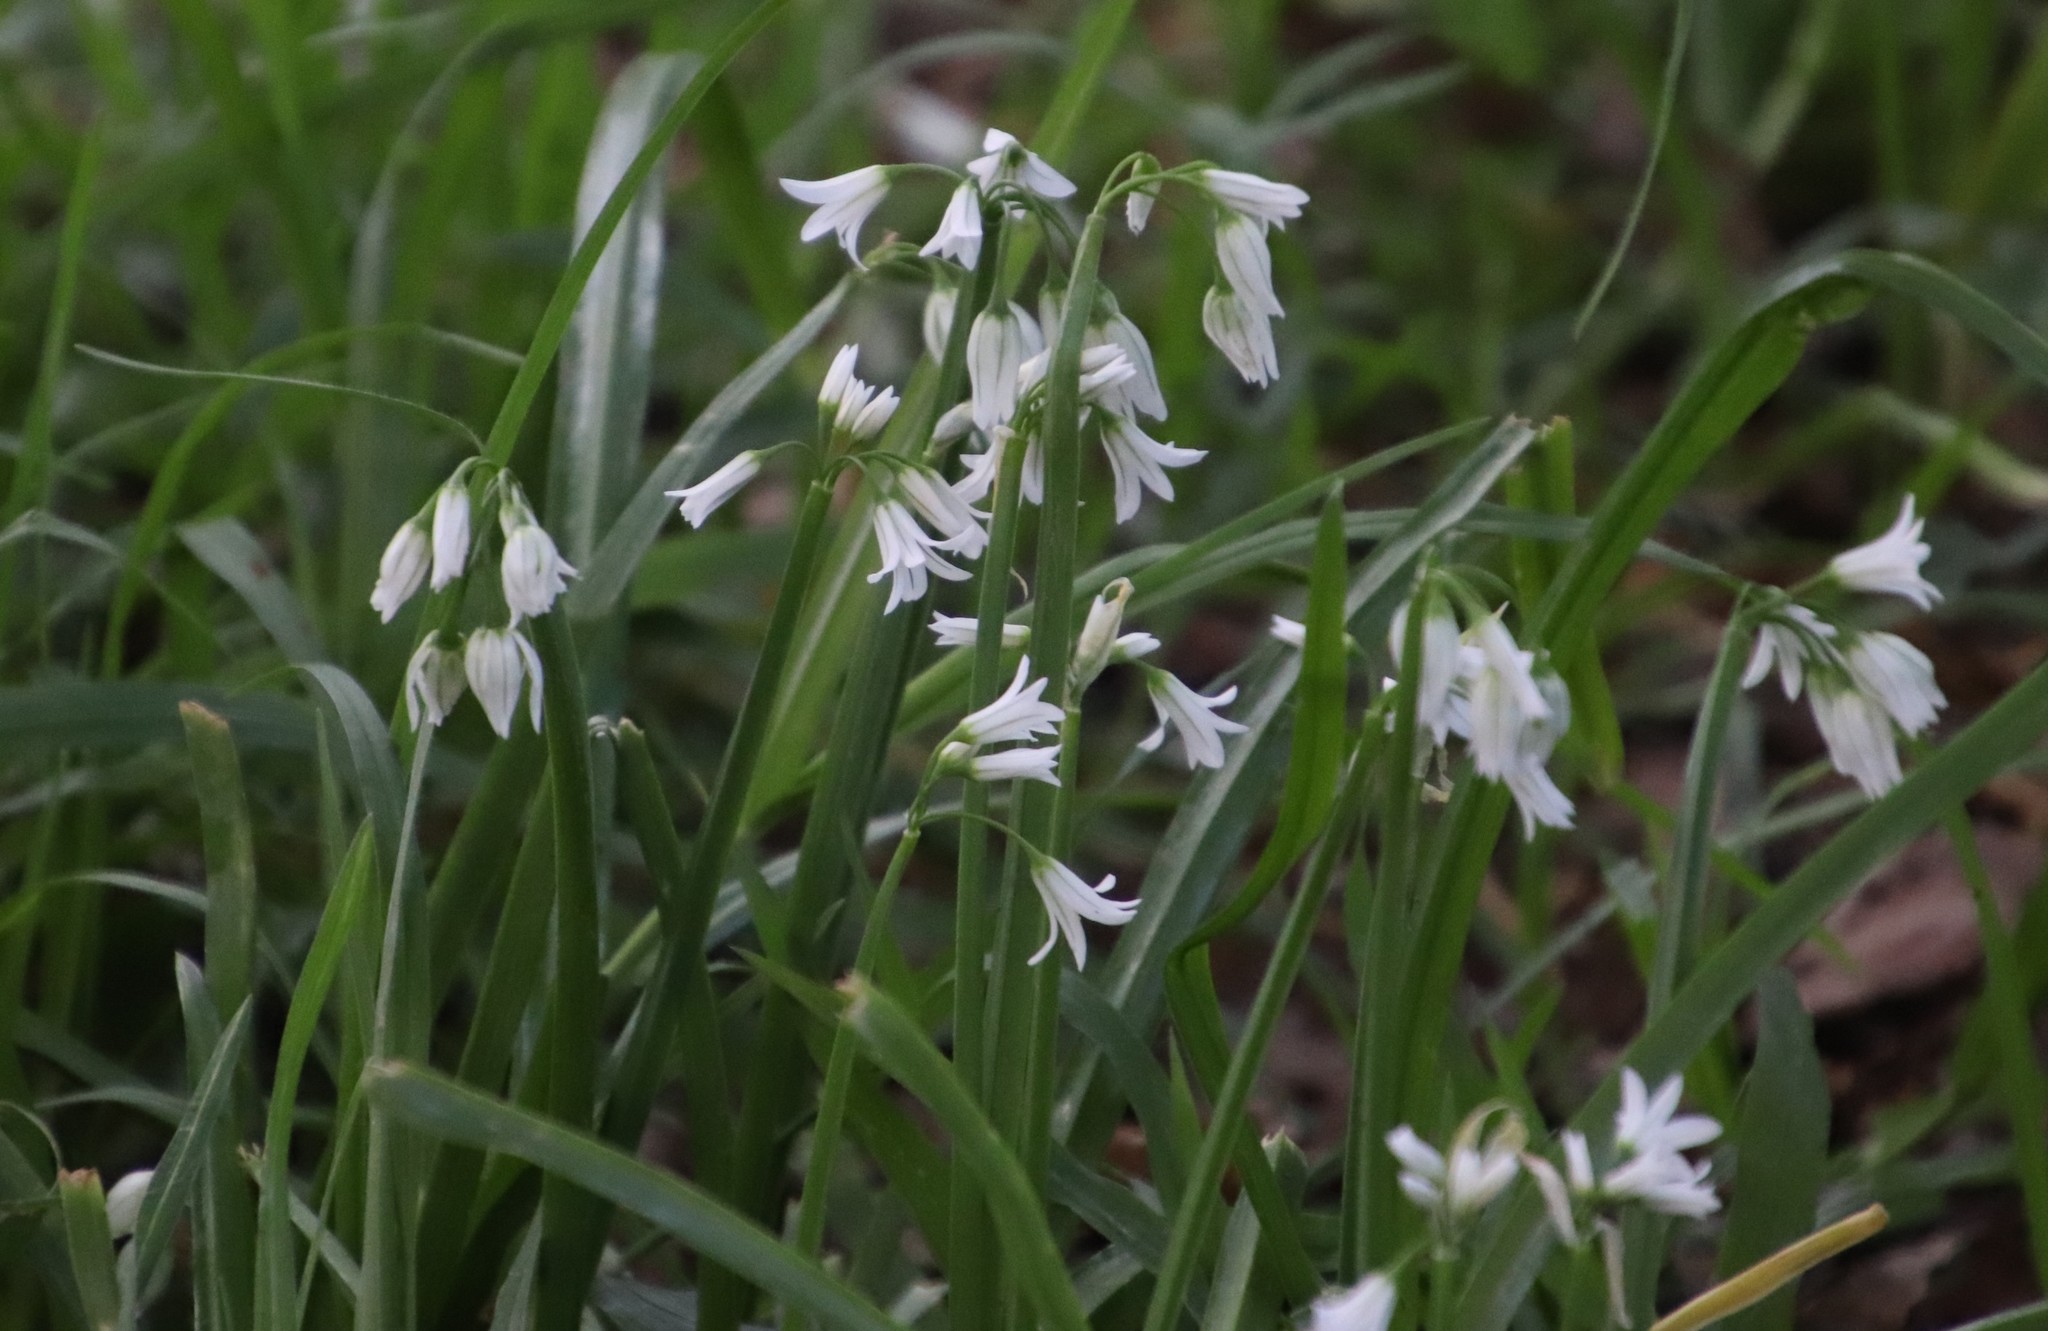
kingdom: Plantae
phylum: Tracheophyta
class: Liliopsida
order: Asparagales
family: Amaryllidaceae
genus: Allium
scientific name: Allium triquetrum
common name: Three-cornered garlic
